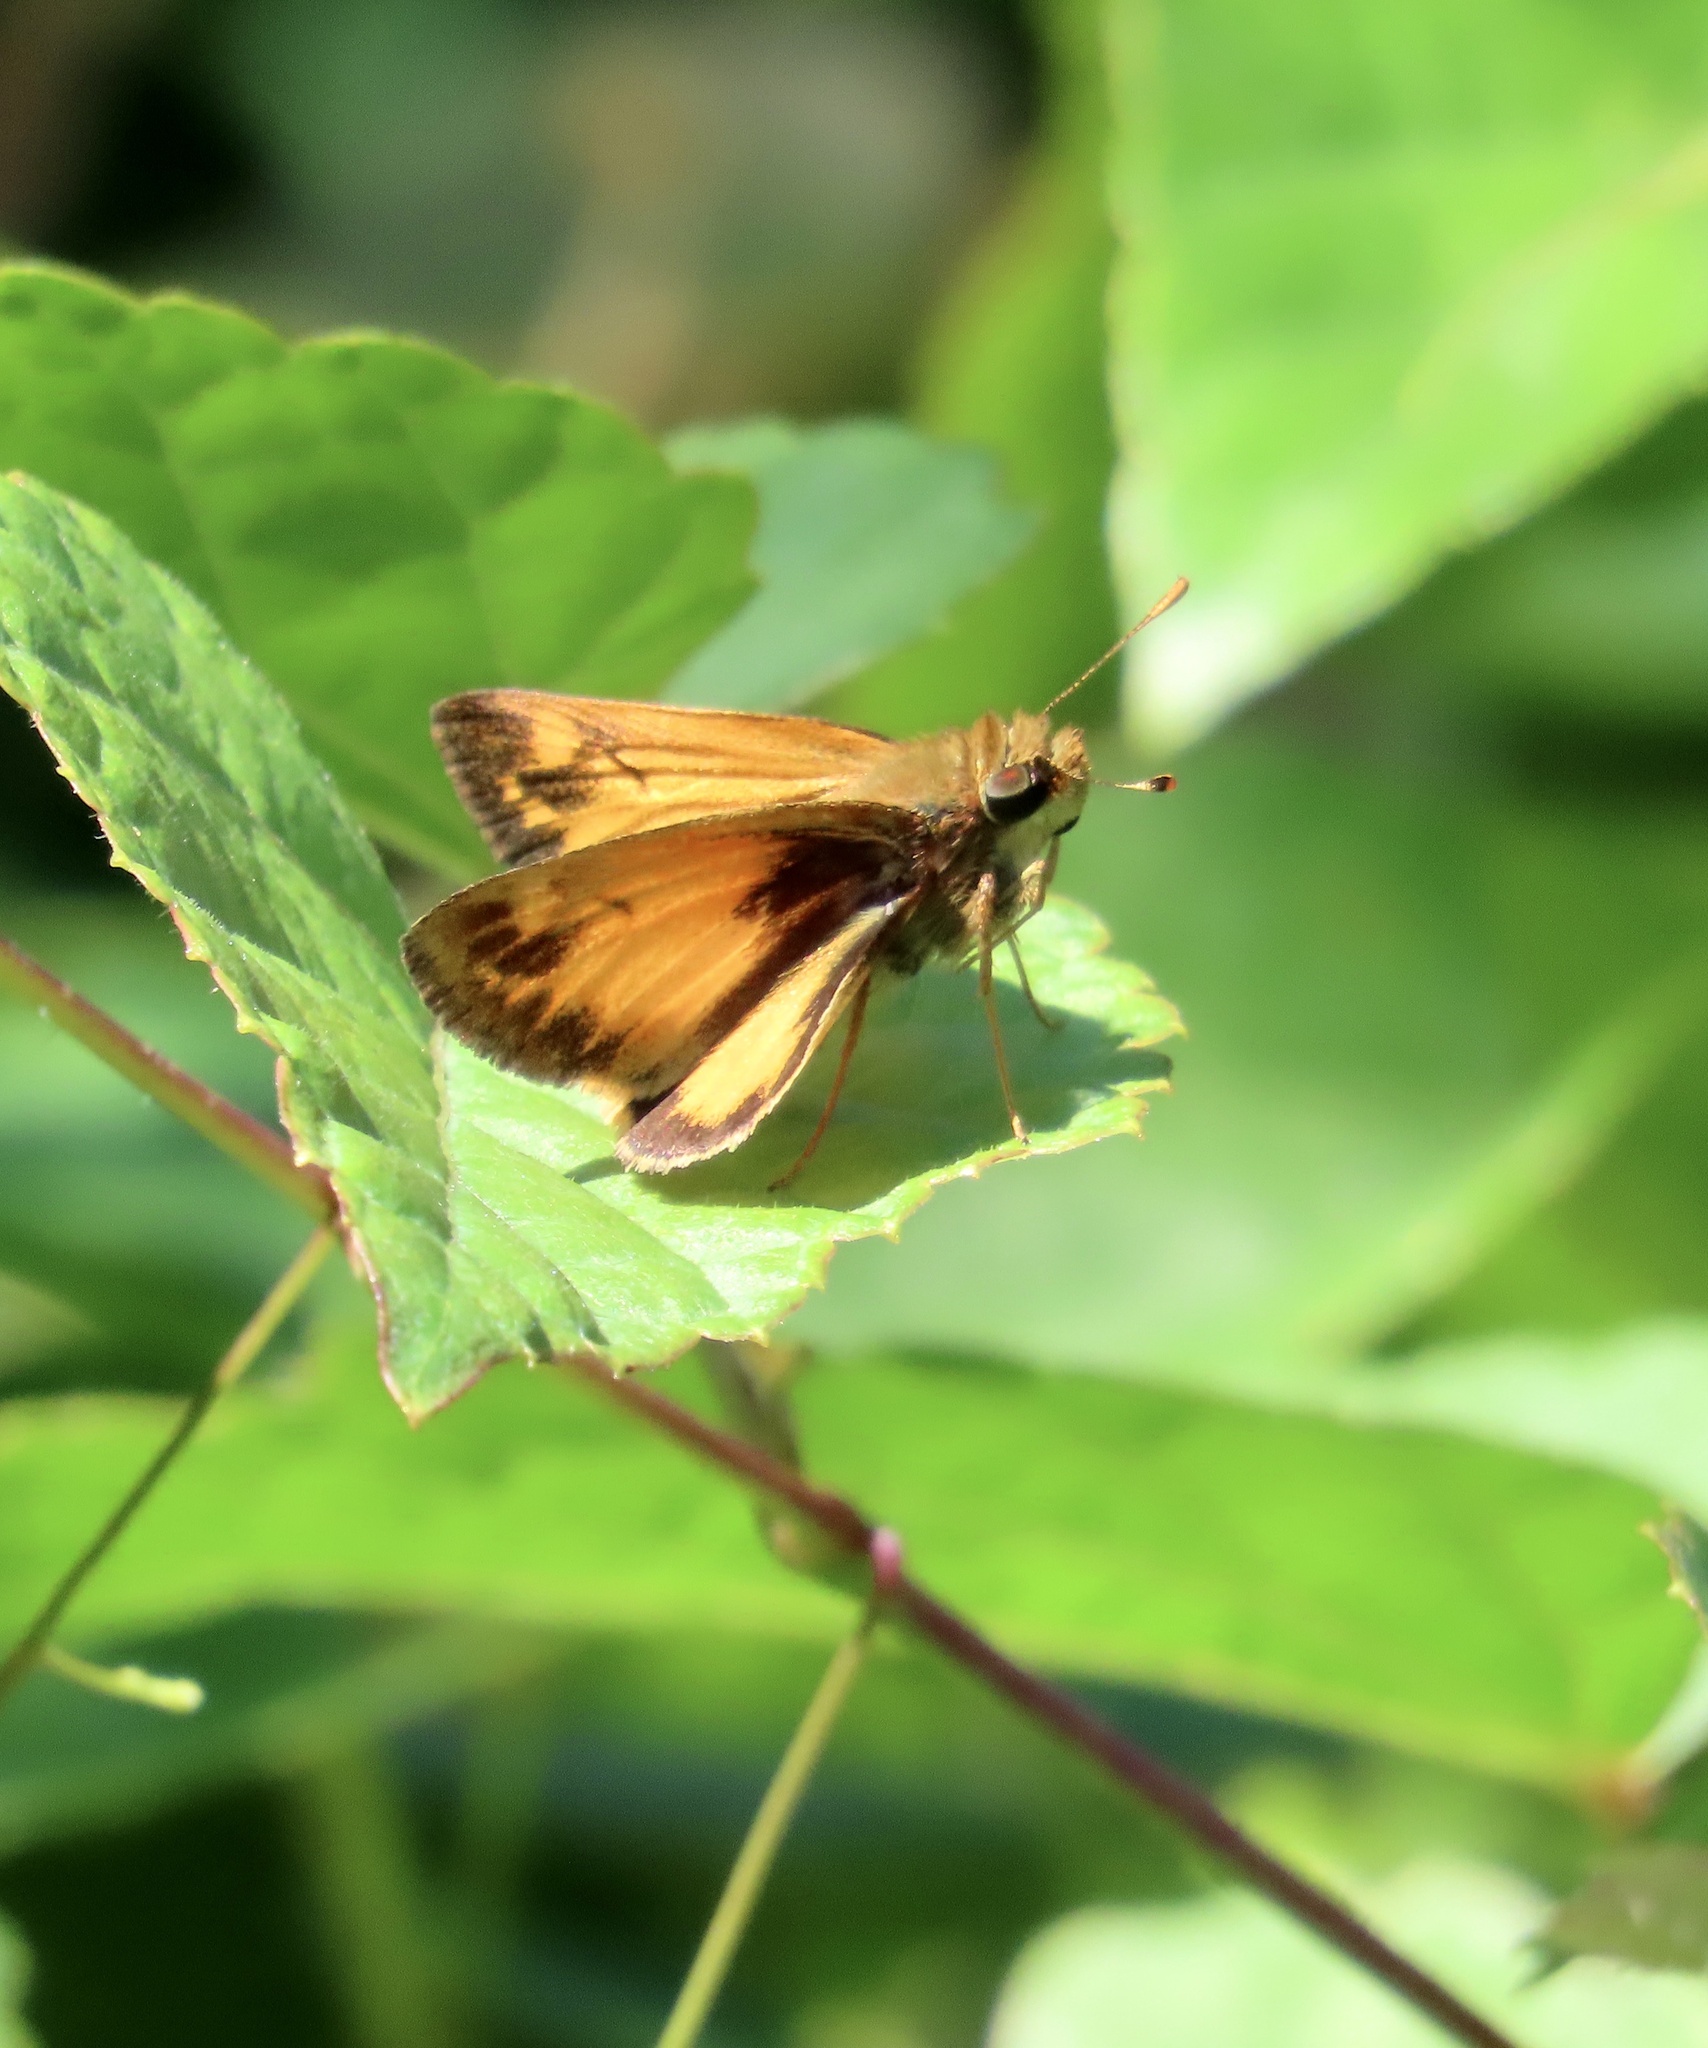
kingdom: Animalia
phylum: Arthropoda
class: Insecta
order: Lepidoptera
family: Hesperiidae
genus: Lon
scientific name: Lon zabulon
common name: Zabulon skipper
